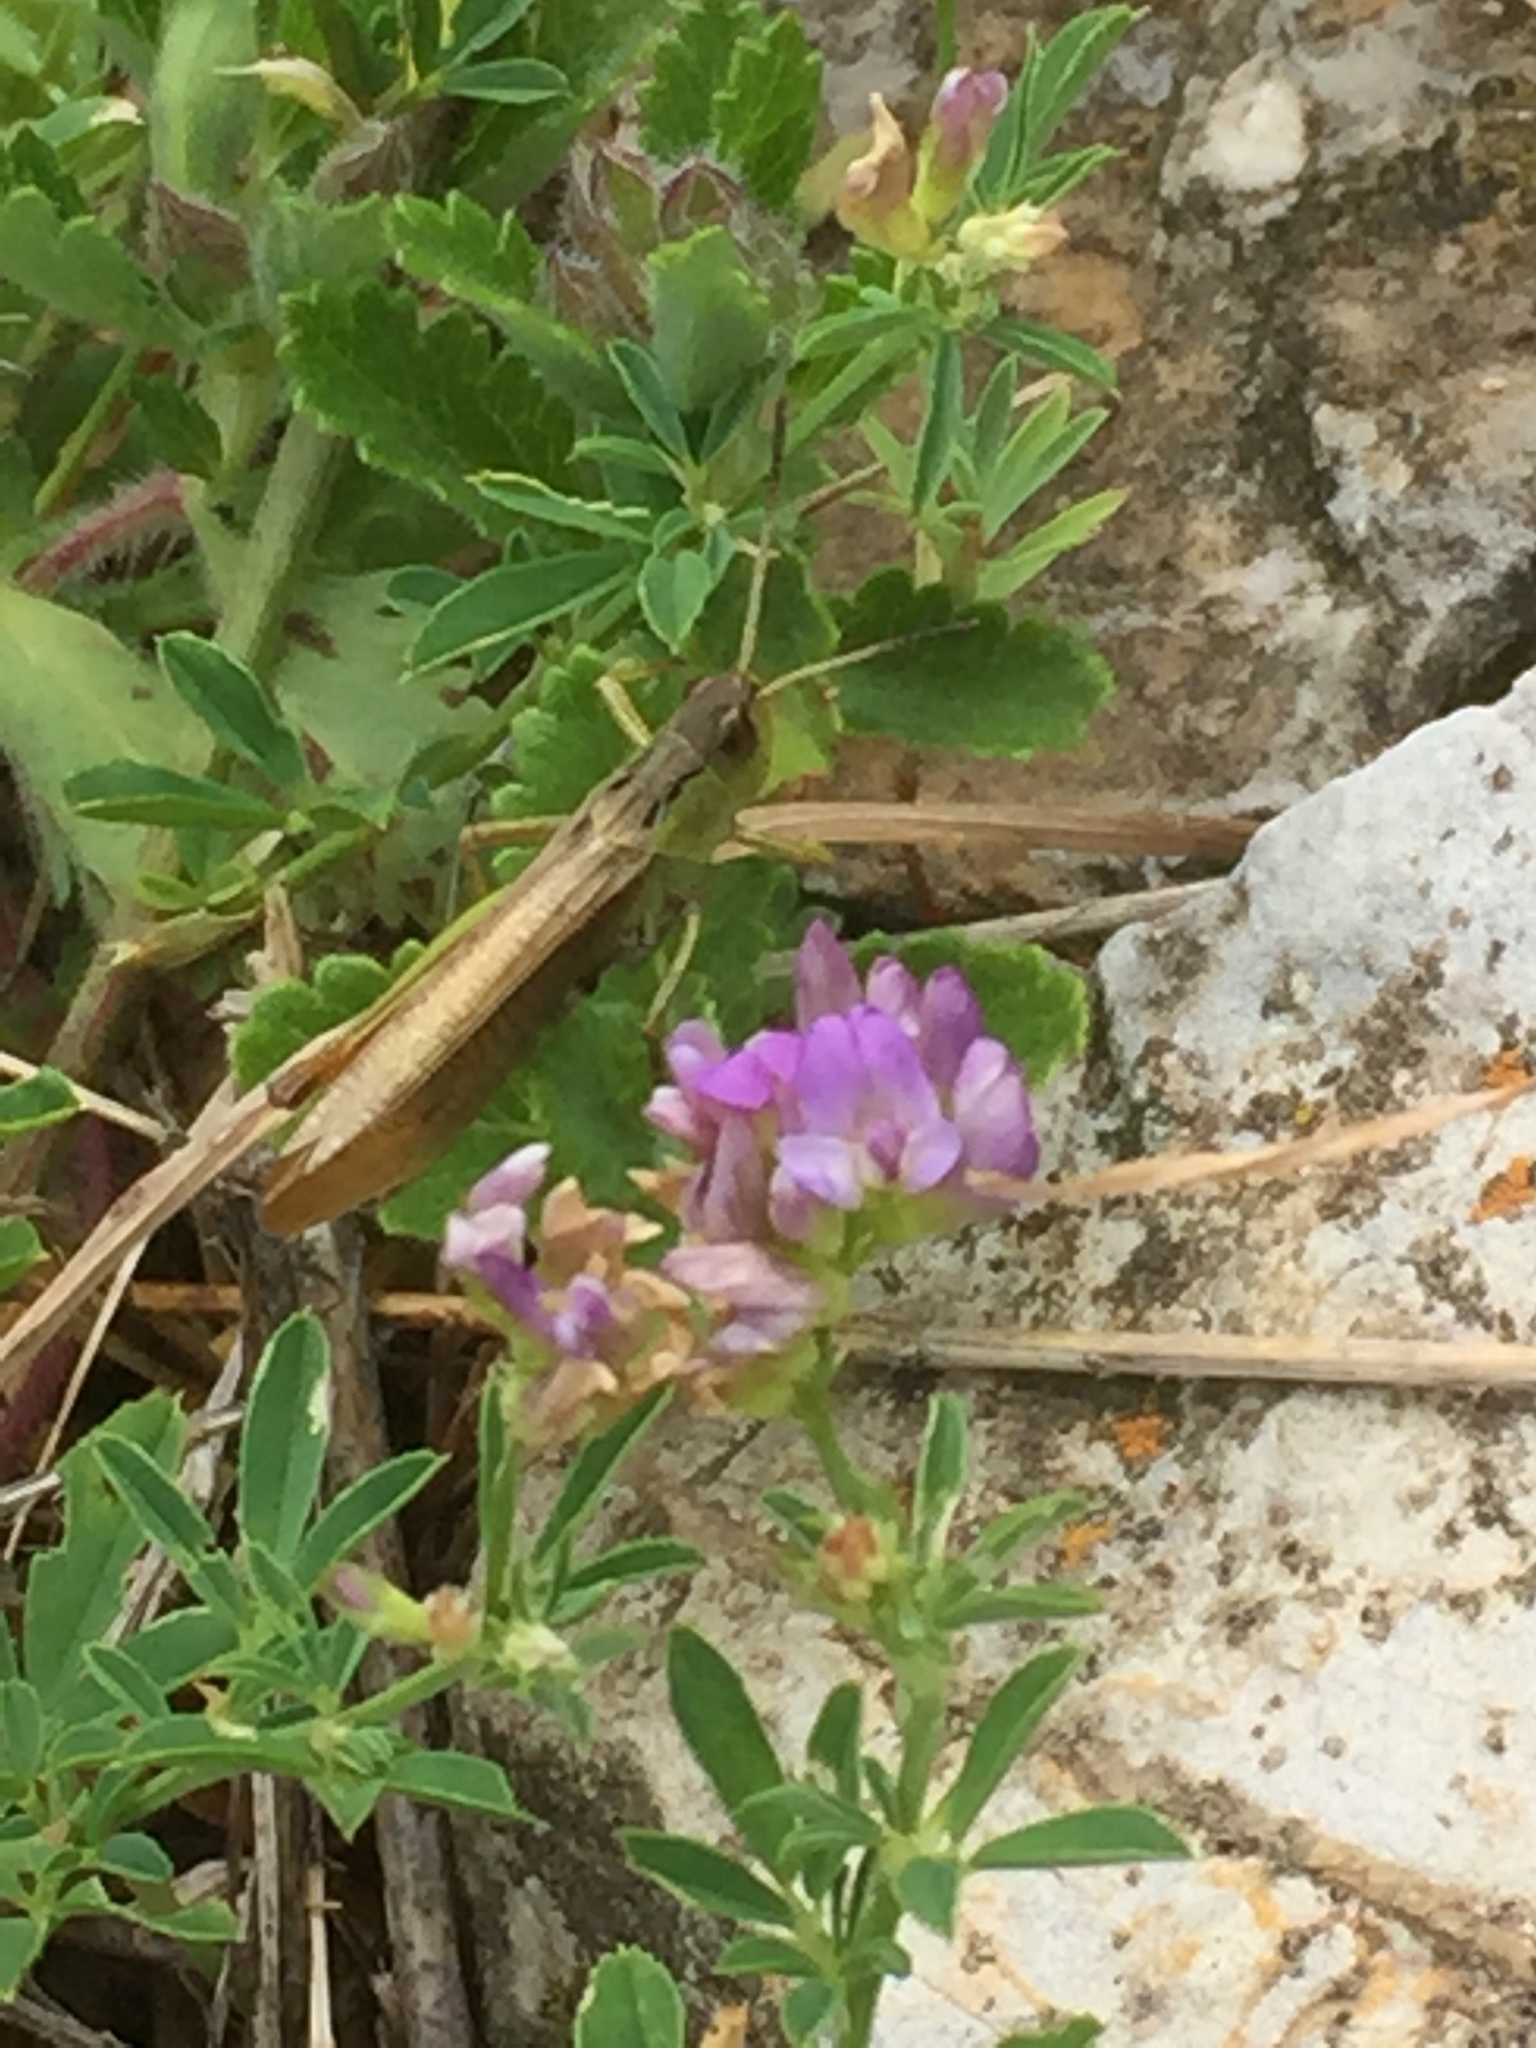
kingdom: Animalia
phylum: Arthropoda
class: Insecta
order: Orthoptera
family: Acrididae
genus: Stauroderus
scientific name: Stauroderus scalaris
